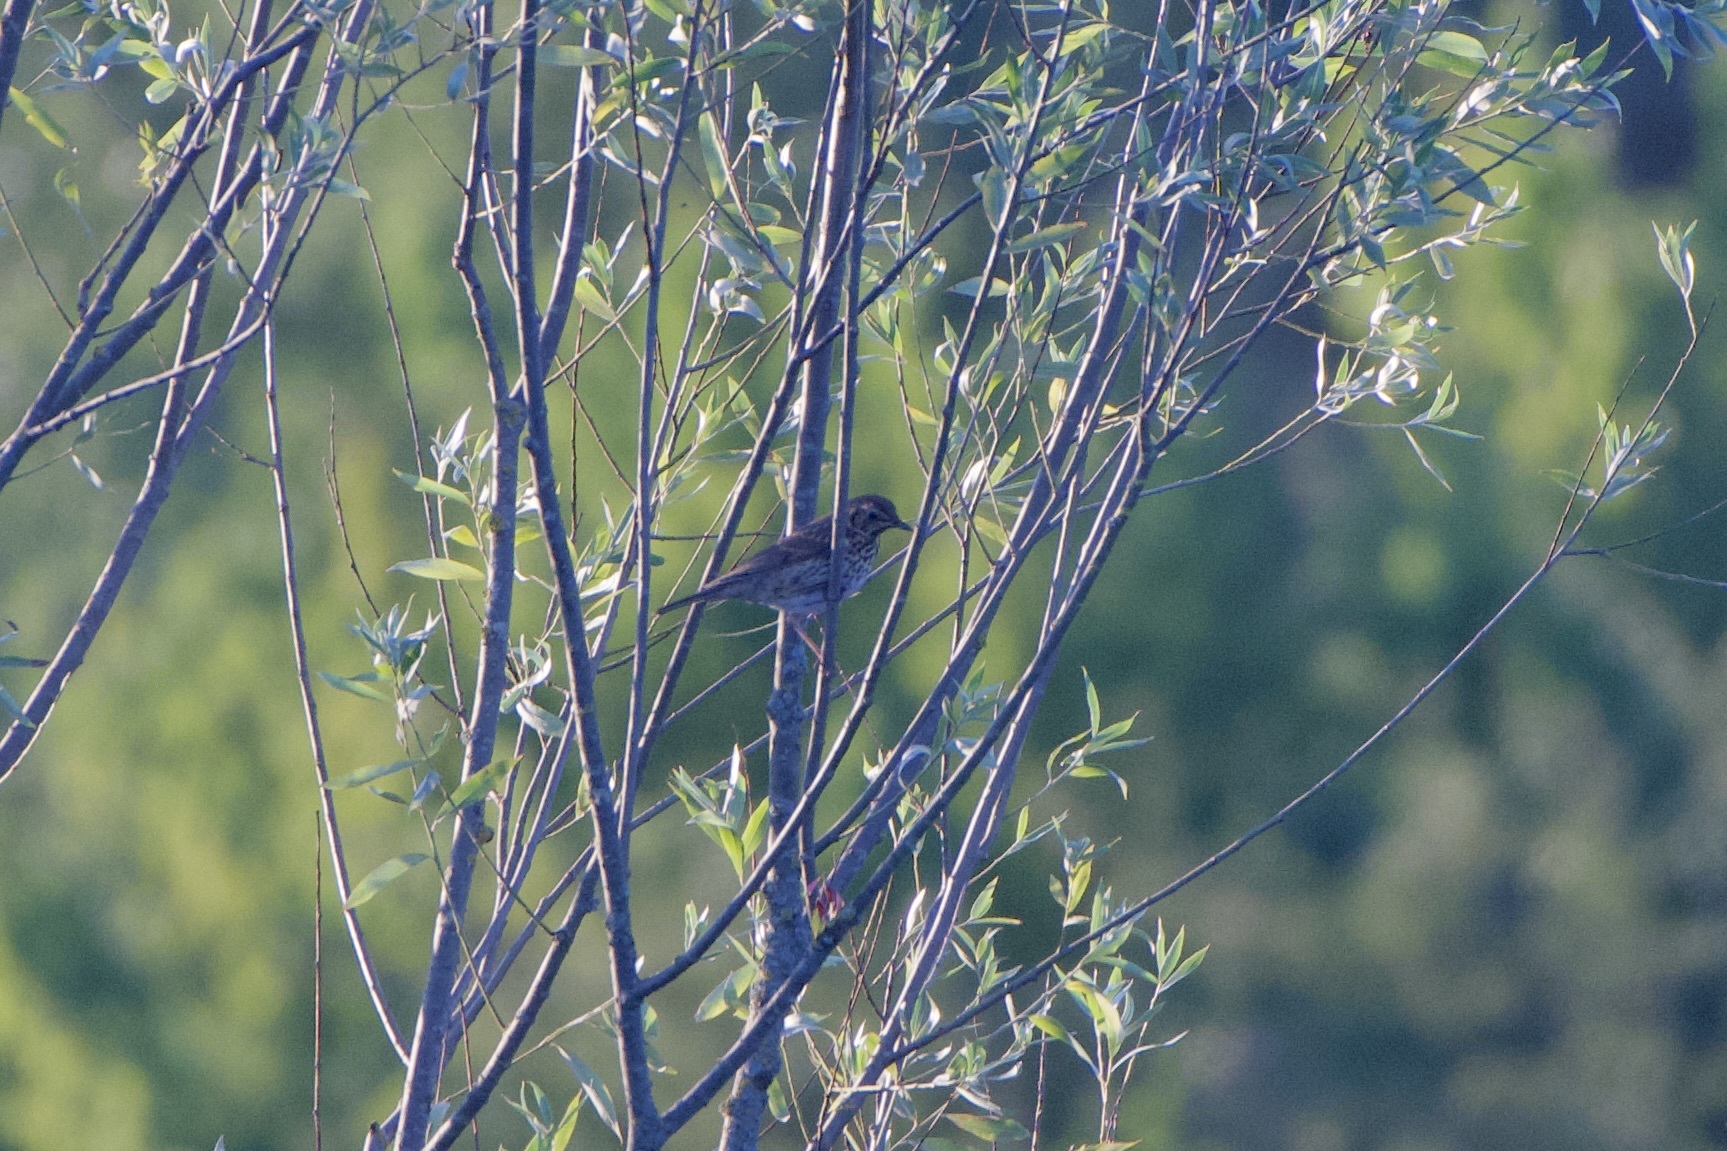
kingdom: Animalia
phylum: Chordata
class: Aves
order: Passeriformes
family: Turdidae
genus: Turdus
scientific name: Turdus philomelos
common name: Song thrush
